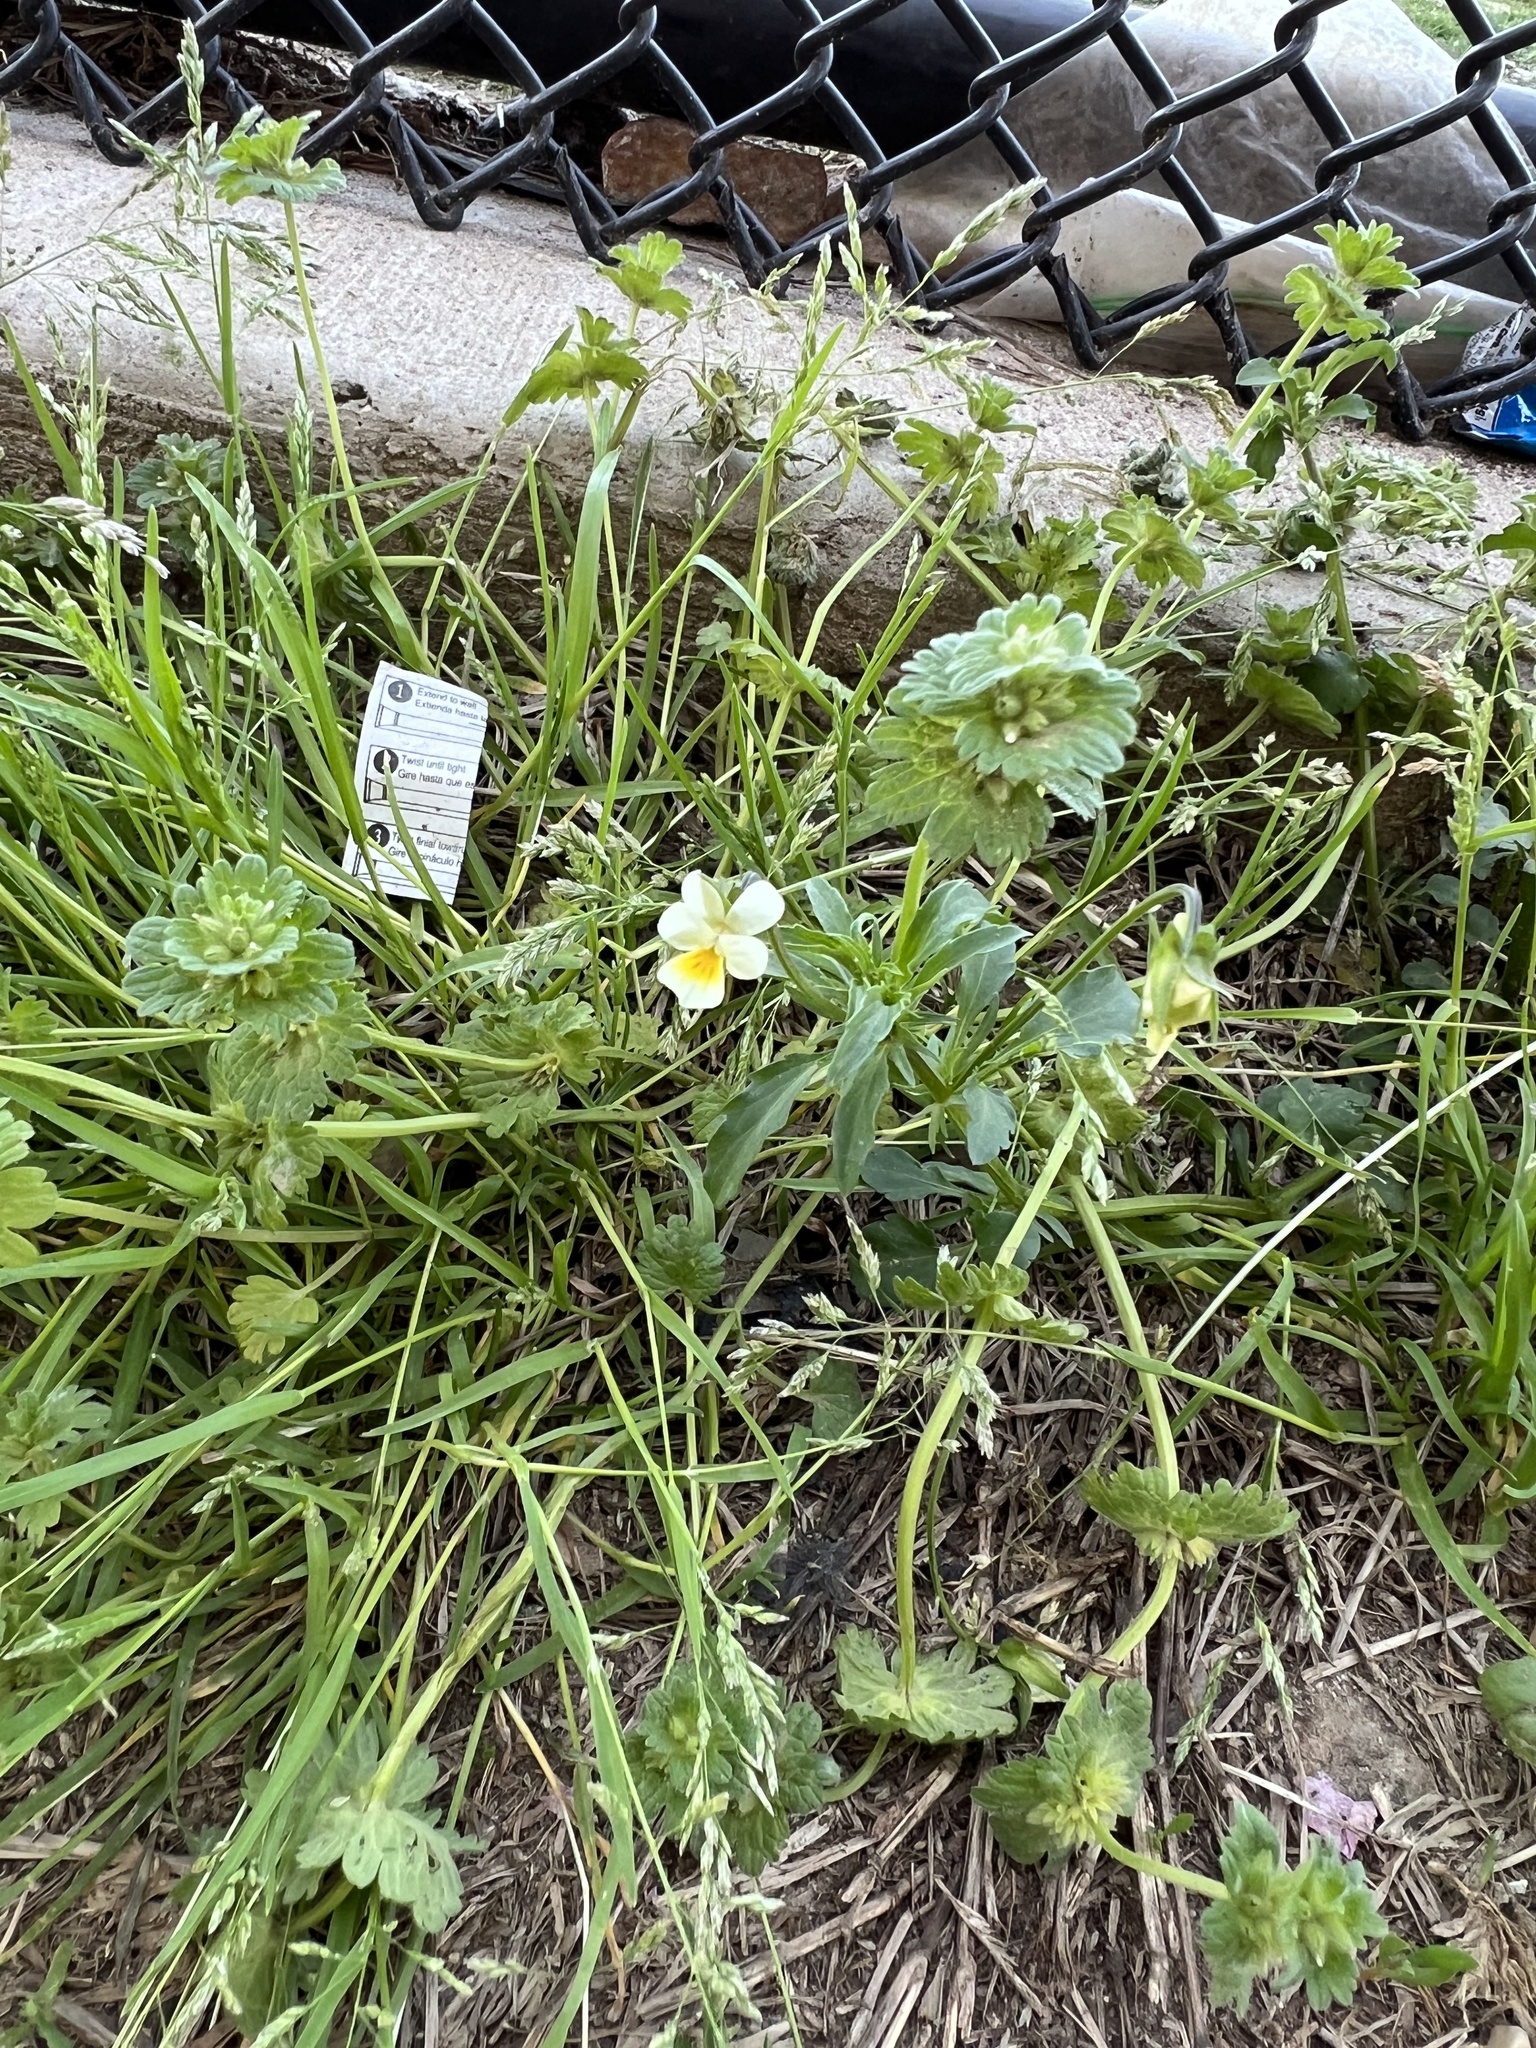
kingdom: Plantae
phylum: Tracheophyta
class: Magnoliopsida
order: Malpighiales
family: Violaceae
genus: Viola
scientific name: Viola arvensis
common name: Field pansy
